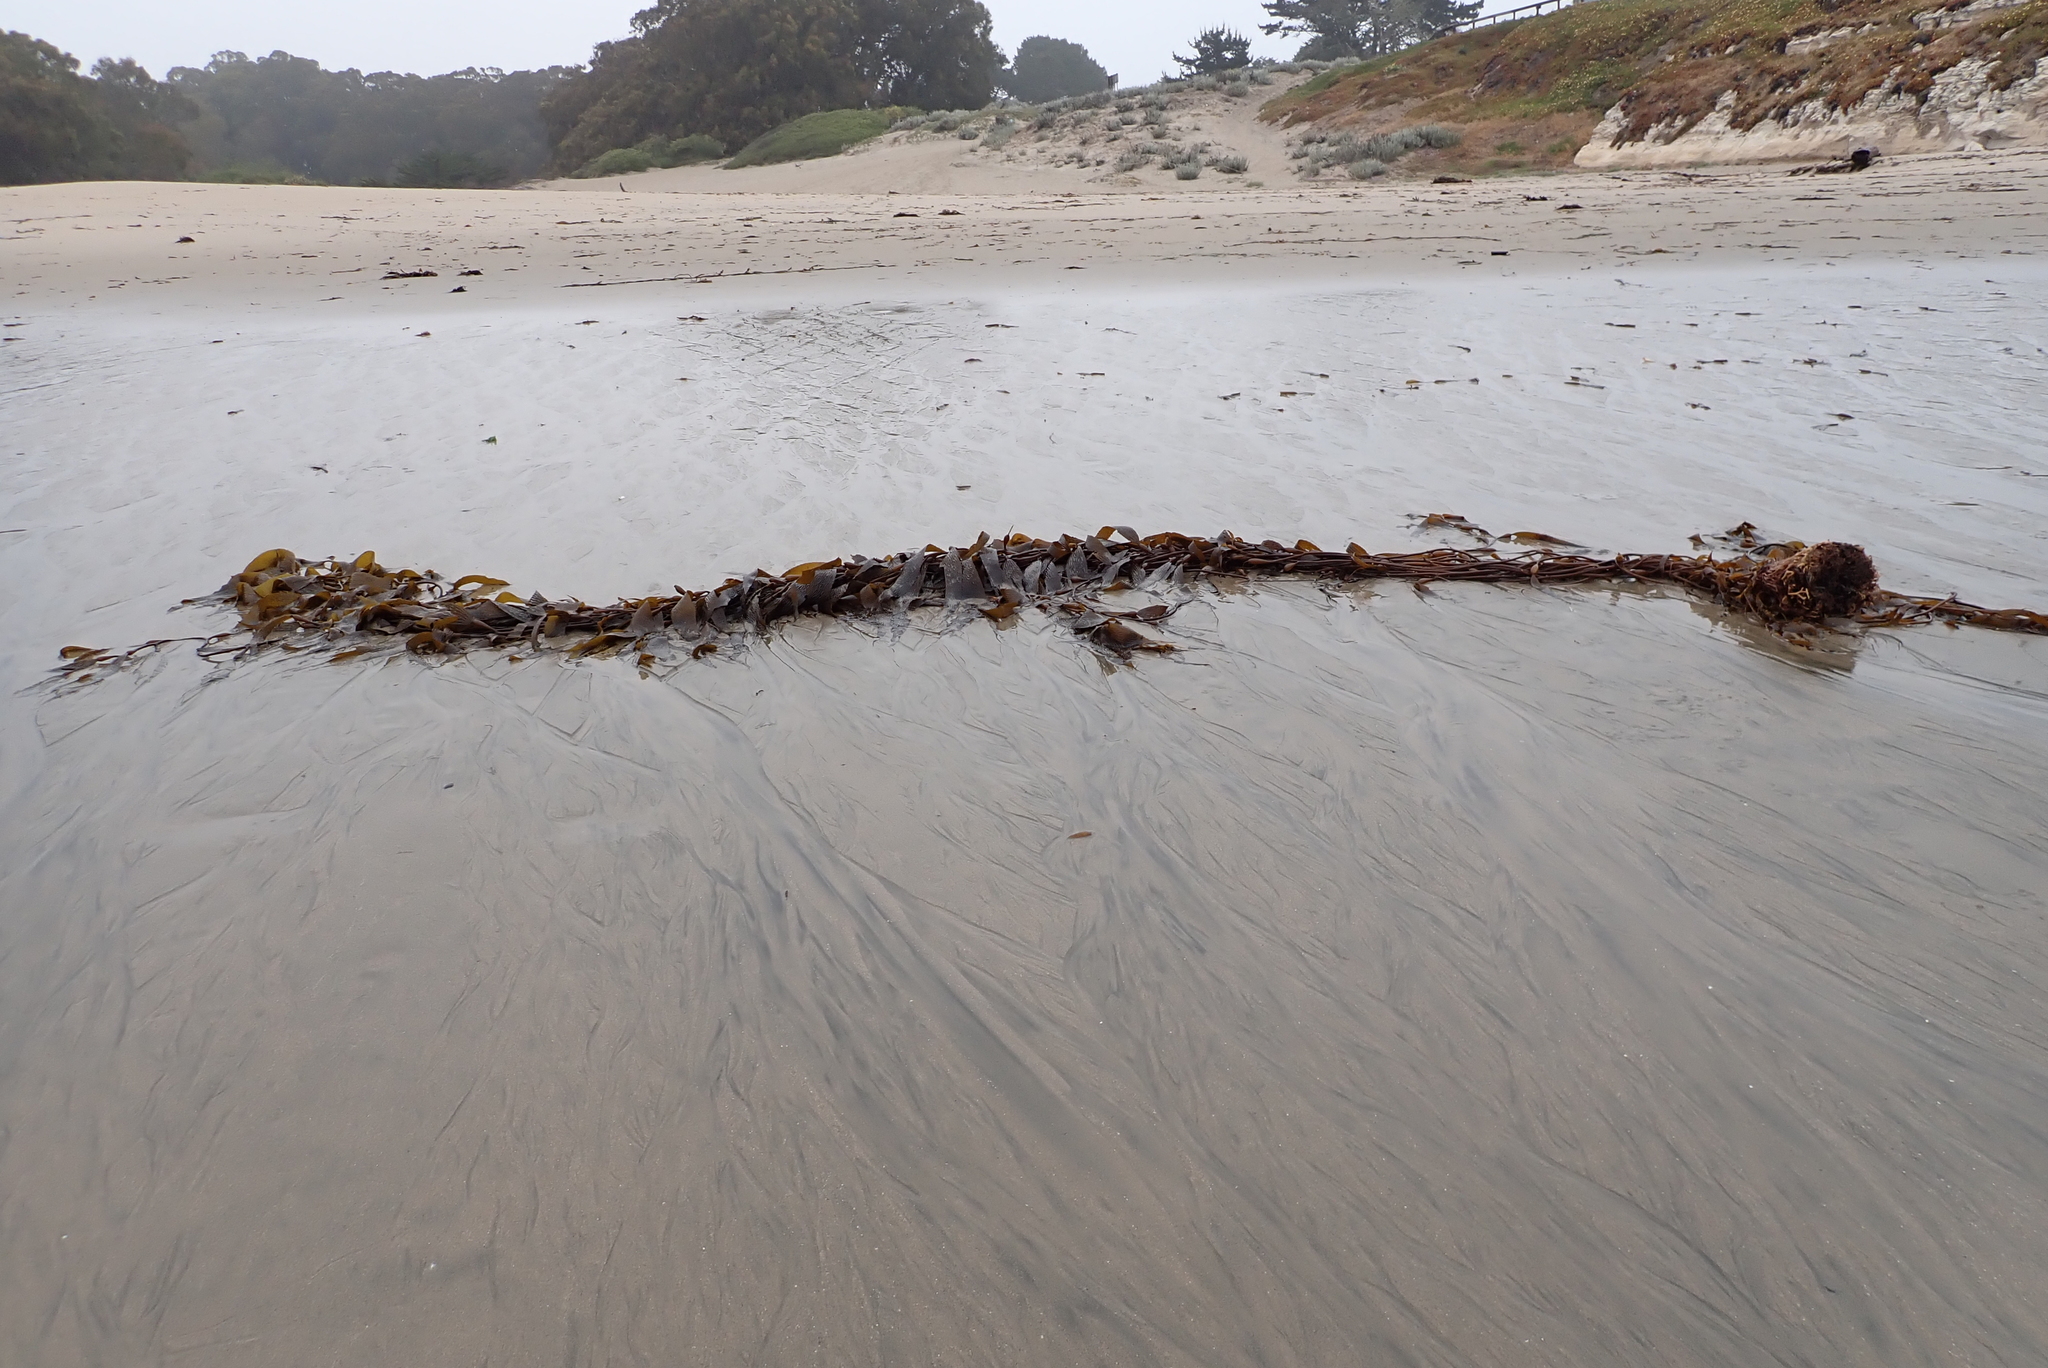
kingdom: Chromista
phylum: Ochrophyta
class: Phaeophyceae
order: Laminariales
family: Laminariaceae
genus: Macrocystis
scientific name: Macrocystis pyrifera
